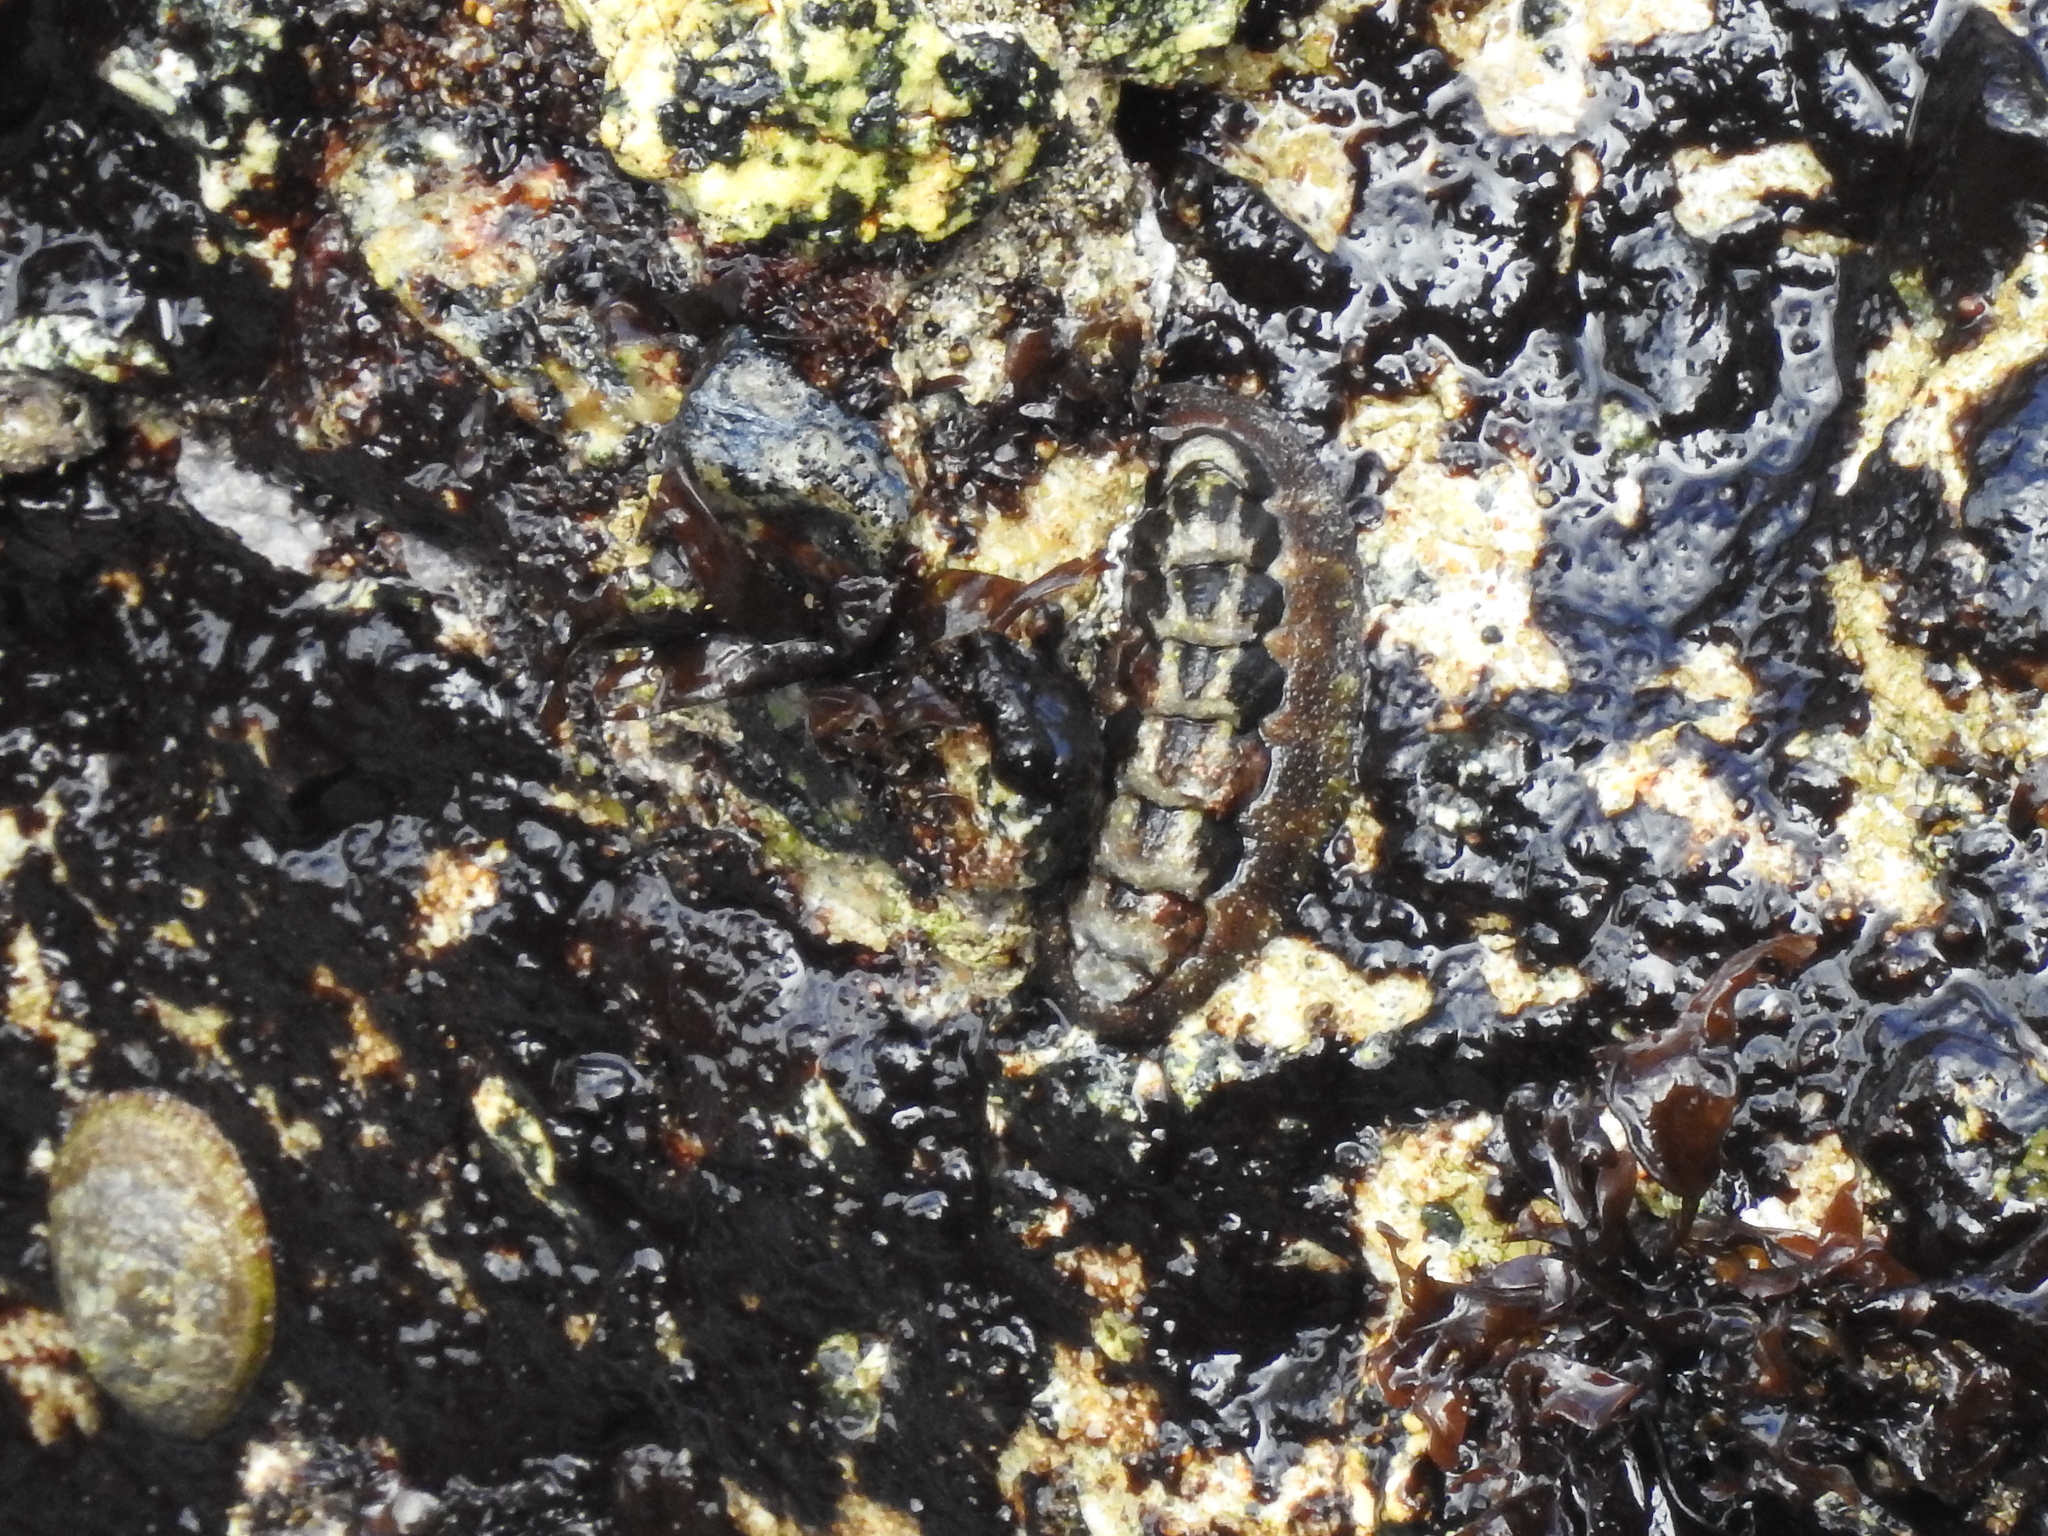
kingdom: Animalia
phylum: Mollusca
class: Polyplacophora
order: Chitonida
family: Tonicellidae
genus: Nuttallina
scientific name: Nuttallina californica
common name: California nuttall chiton
